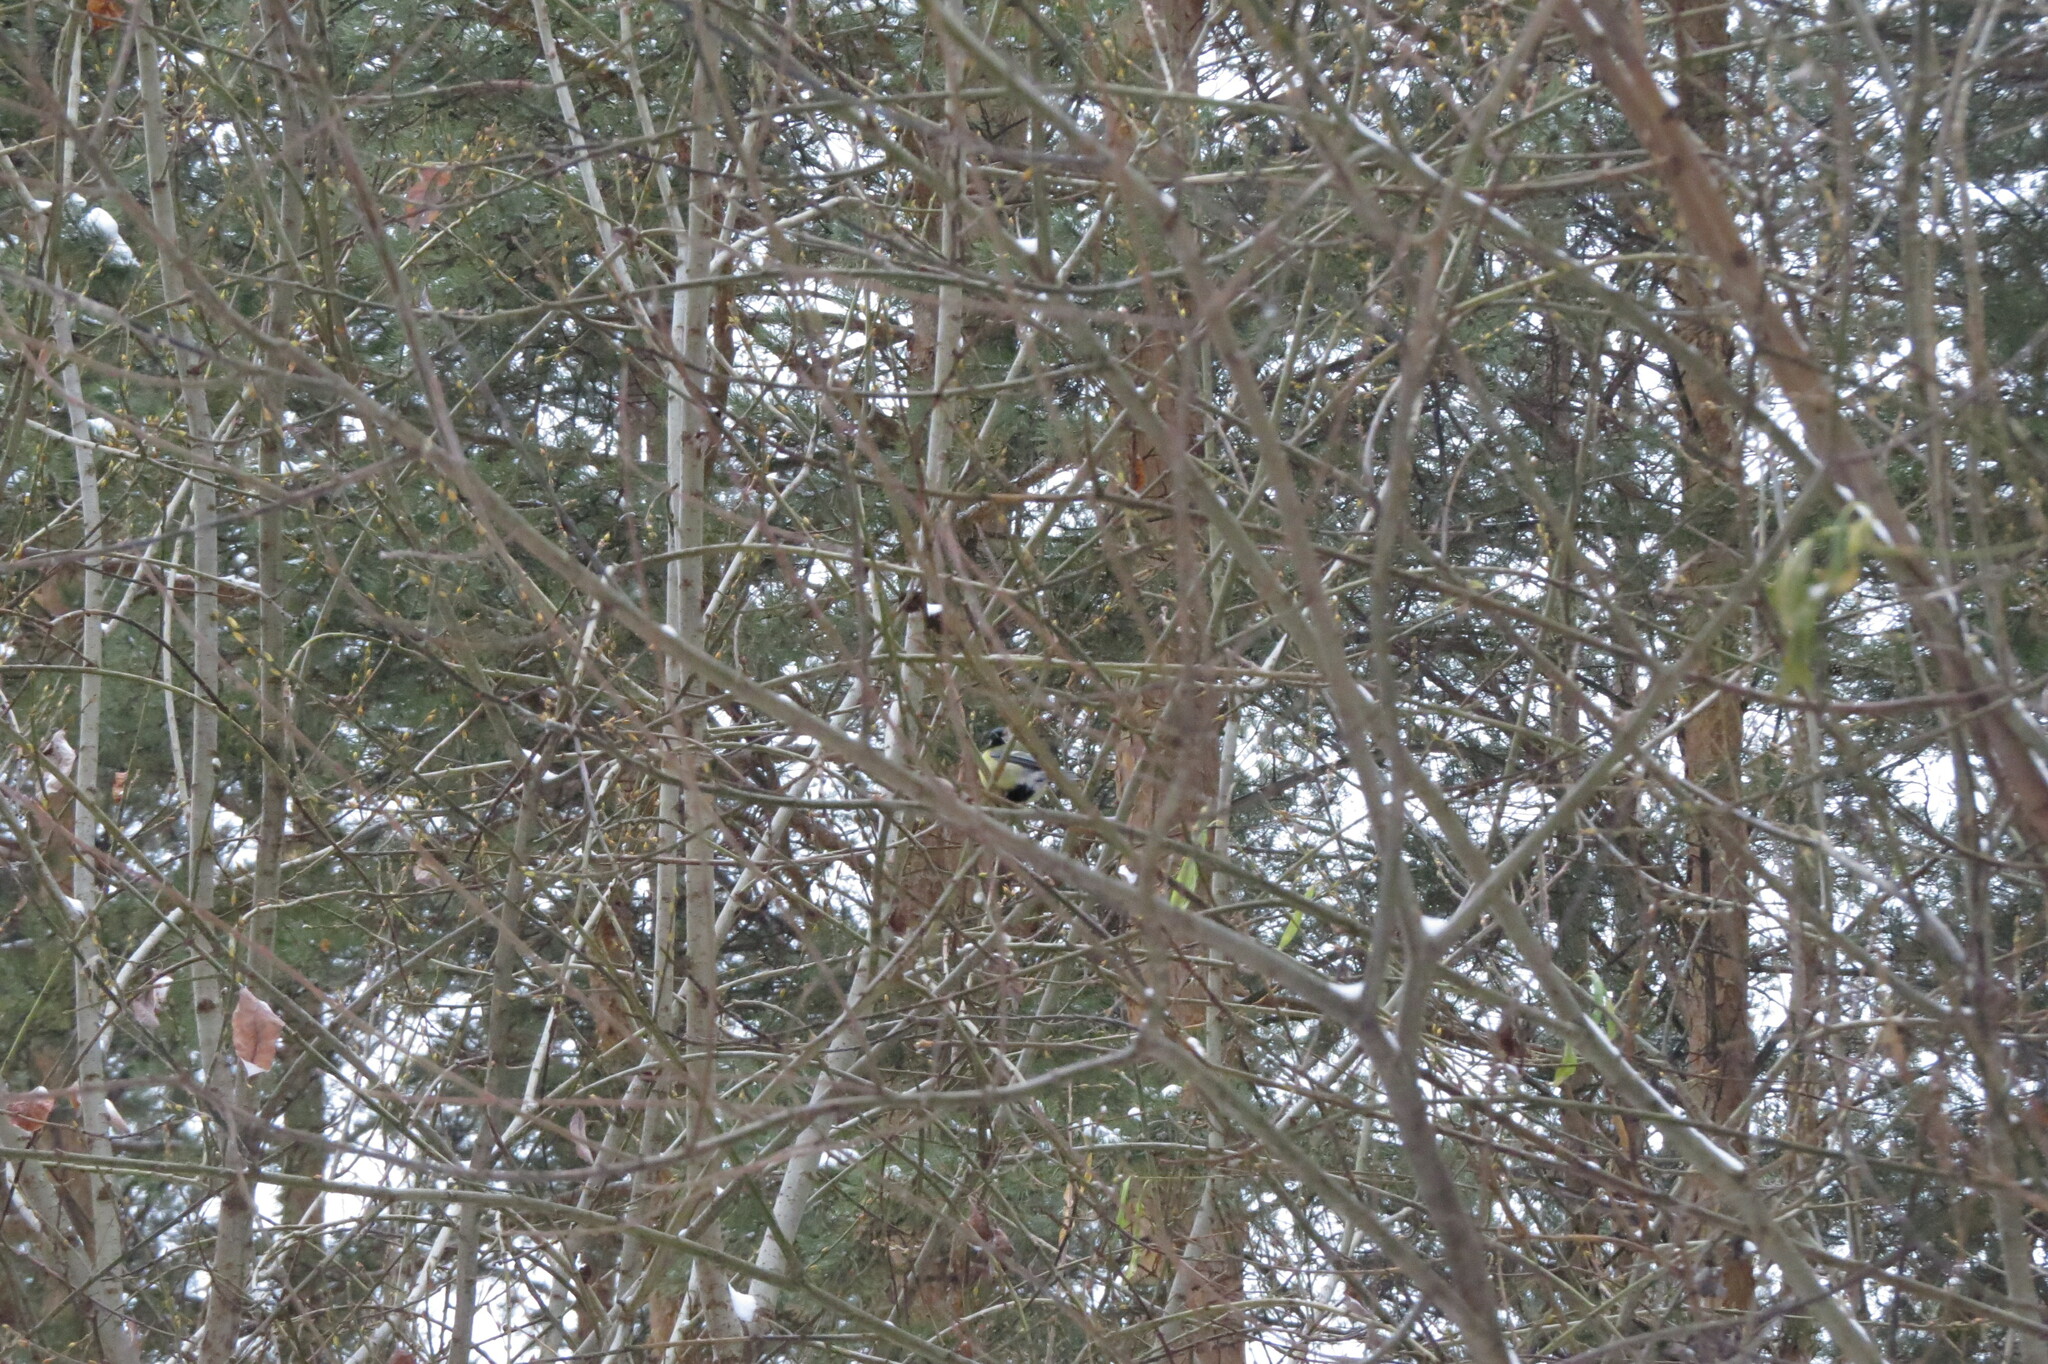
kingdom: Animalia
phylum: Chordata
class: Aves
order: Passeriformes
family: Paridae
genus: Parus
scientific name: Parus major
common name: Great tit
